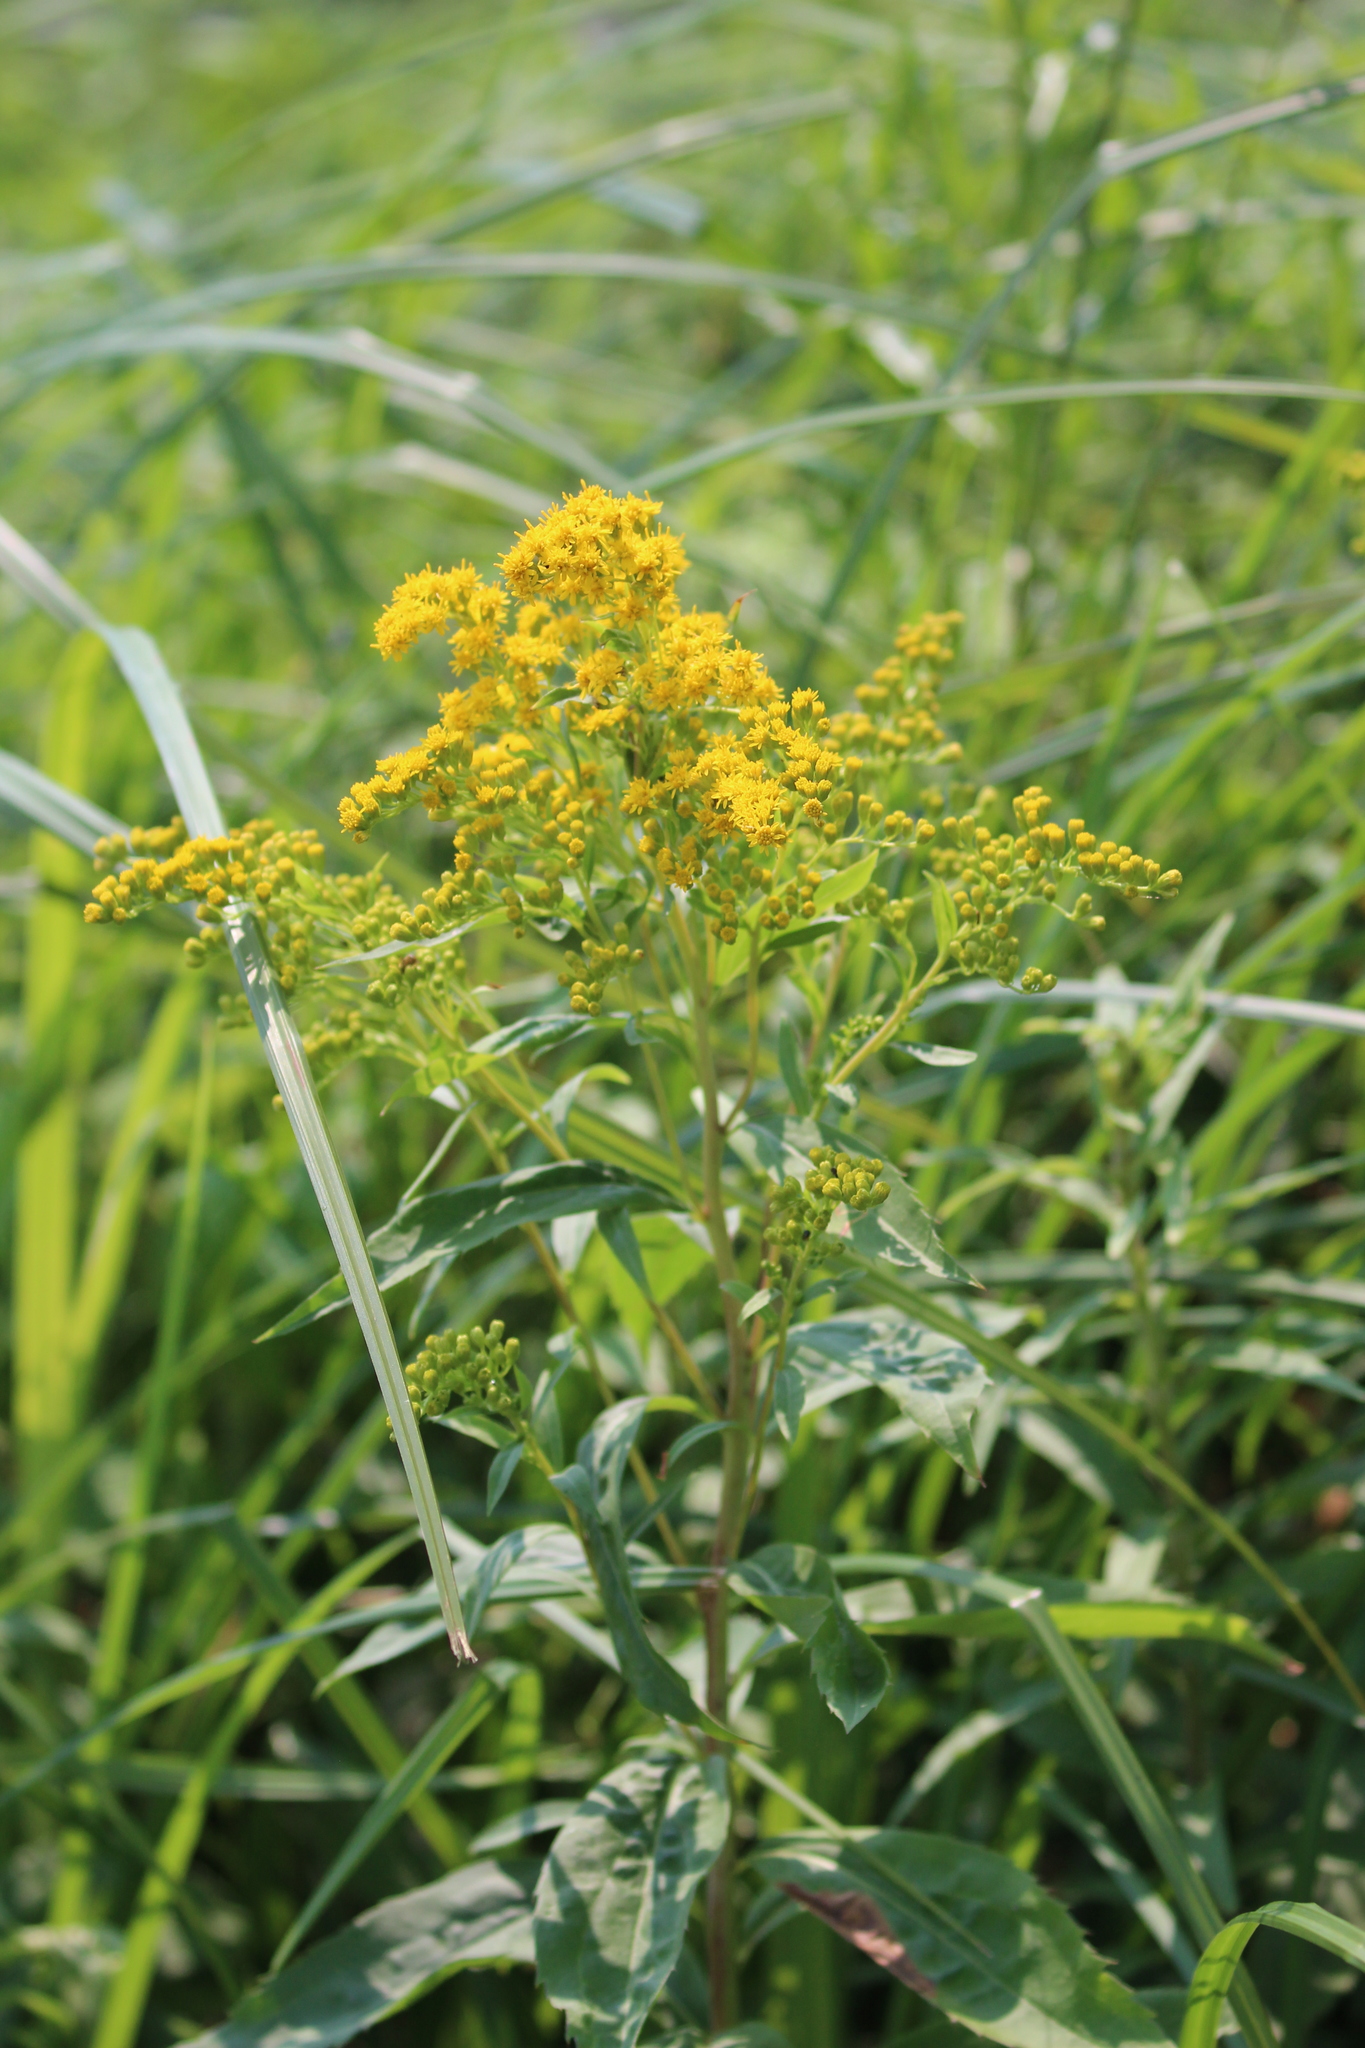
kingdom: Plantae
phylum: Tracheophyta
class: Magnoliopsida
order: Asterales
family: Asteraceae
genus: Solidago
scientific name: Solidago gigantea
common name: Giant goldenrod
